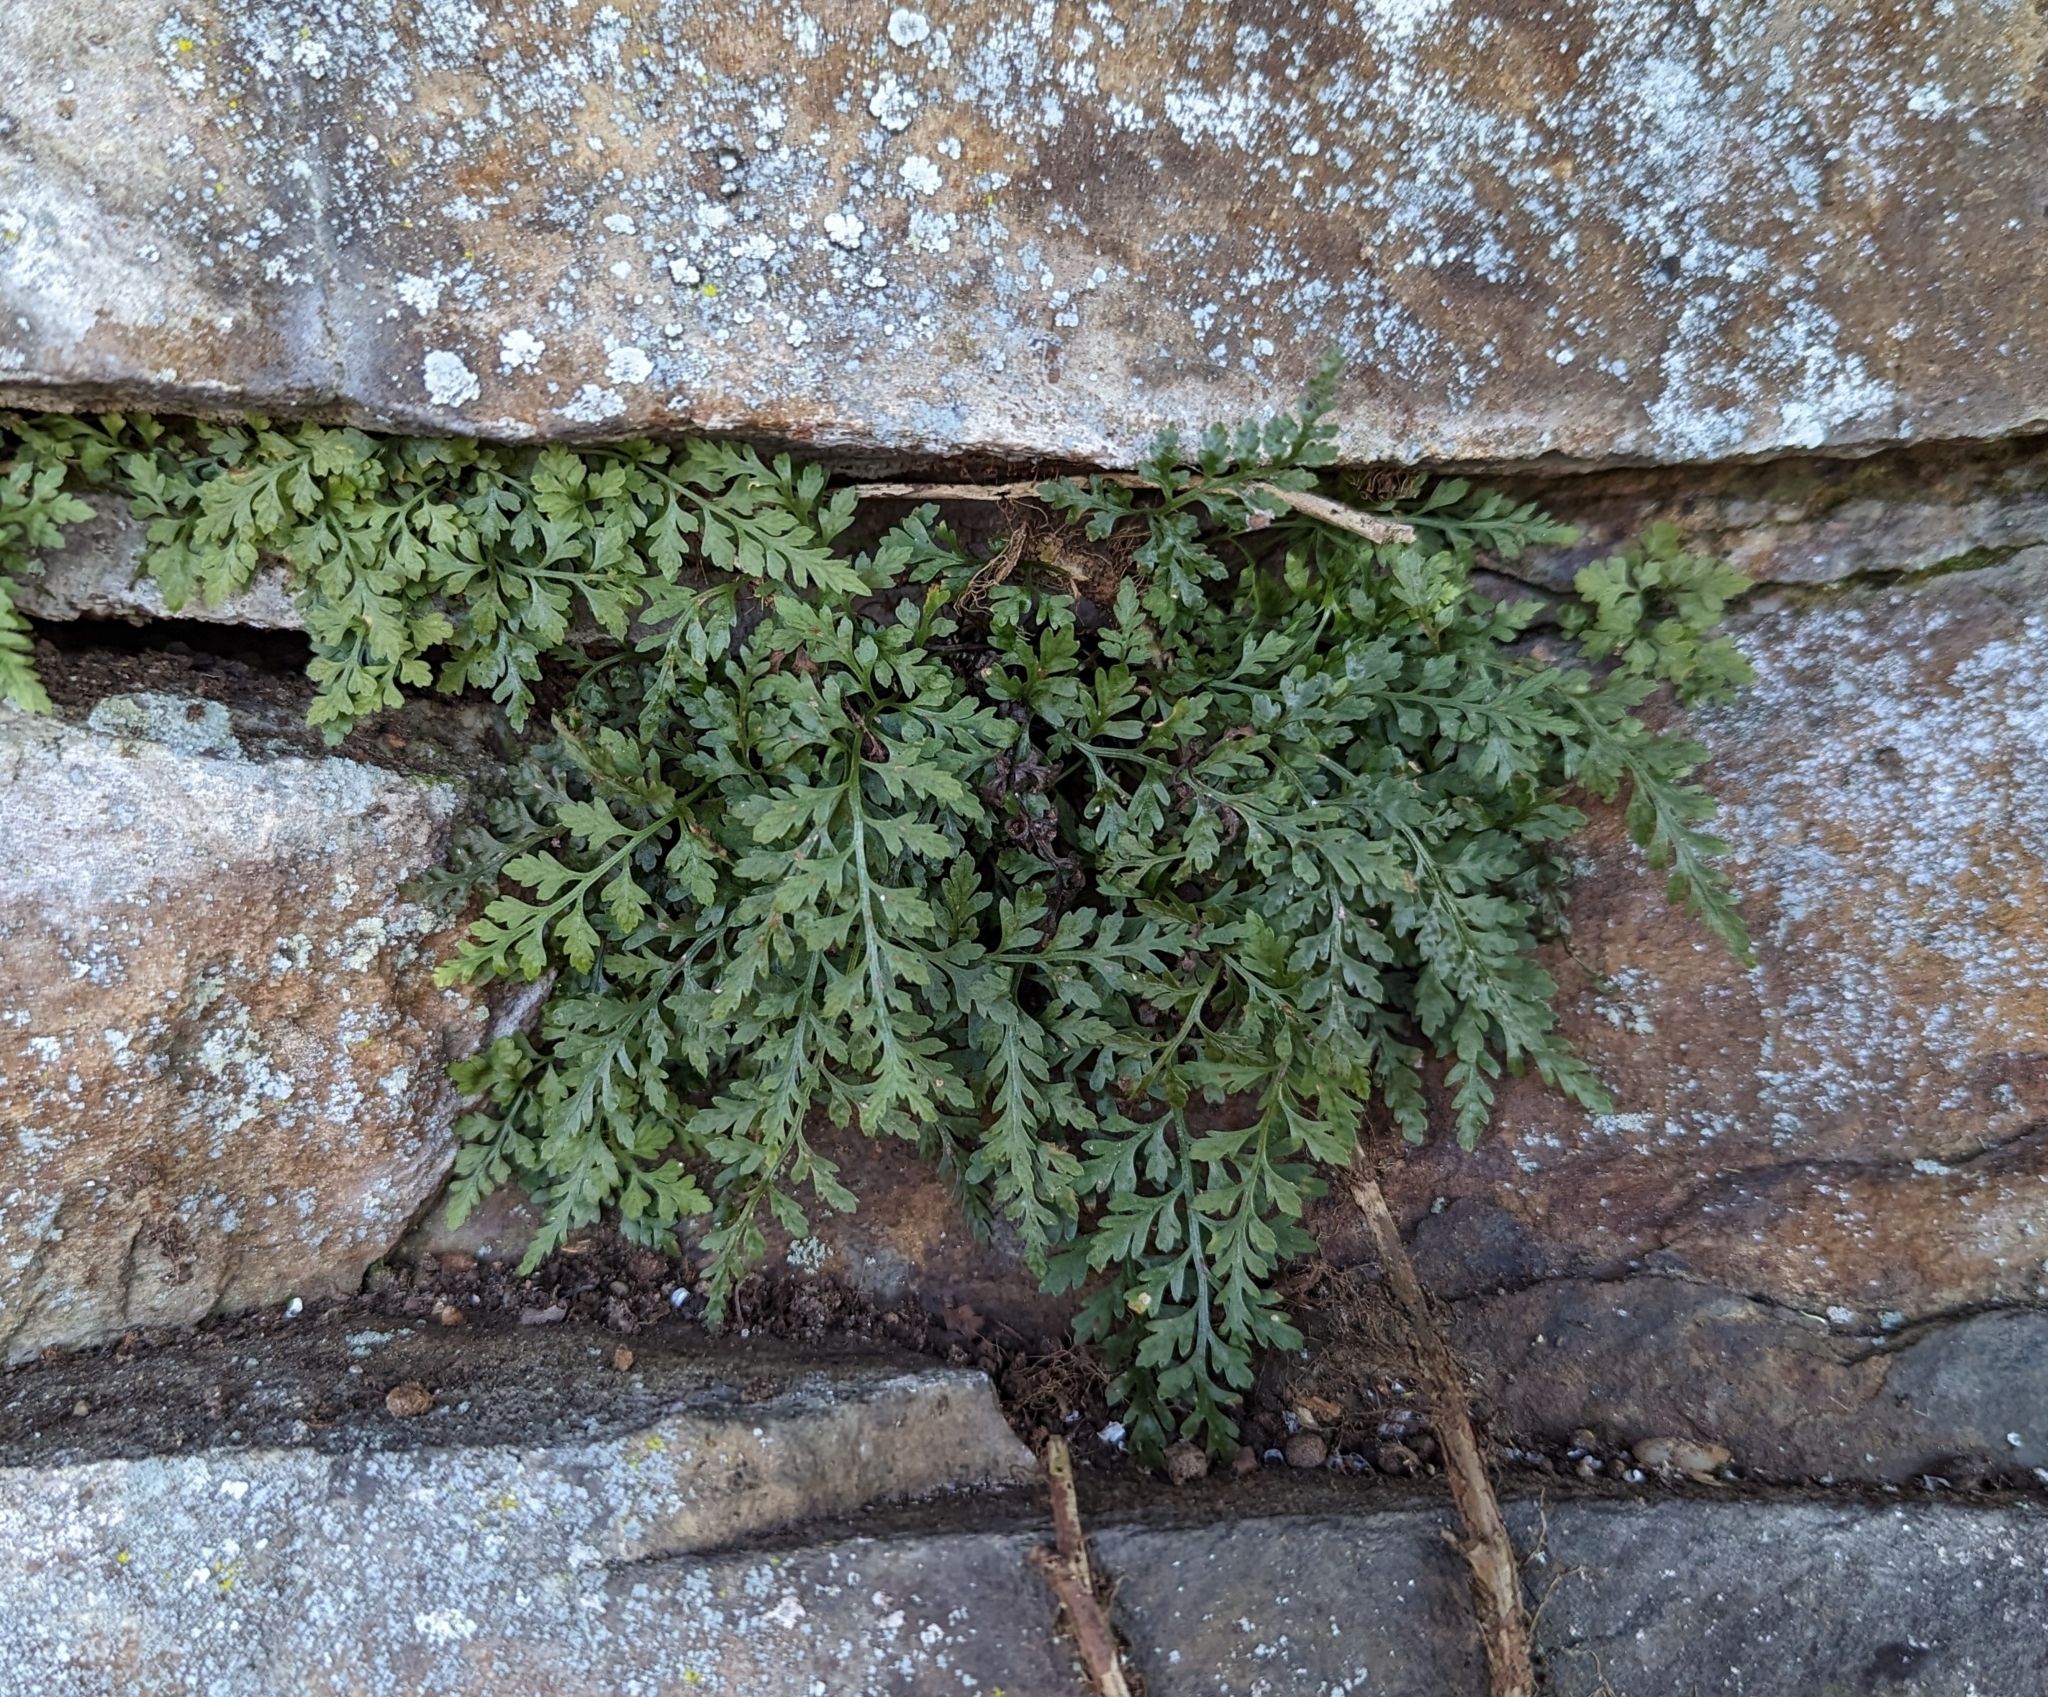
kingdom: Plantae
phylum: Tracheophyta
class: Polypodiopsida
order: Polypodiales
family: Aspleniaceae
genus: Asplenium
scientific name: Asplenium montanum
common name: Mountain spleenwort
